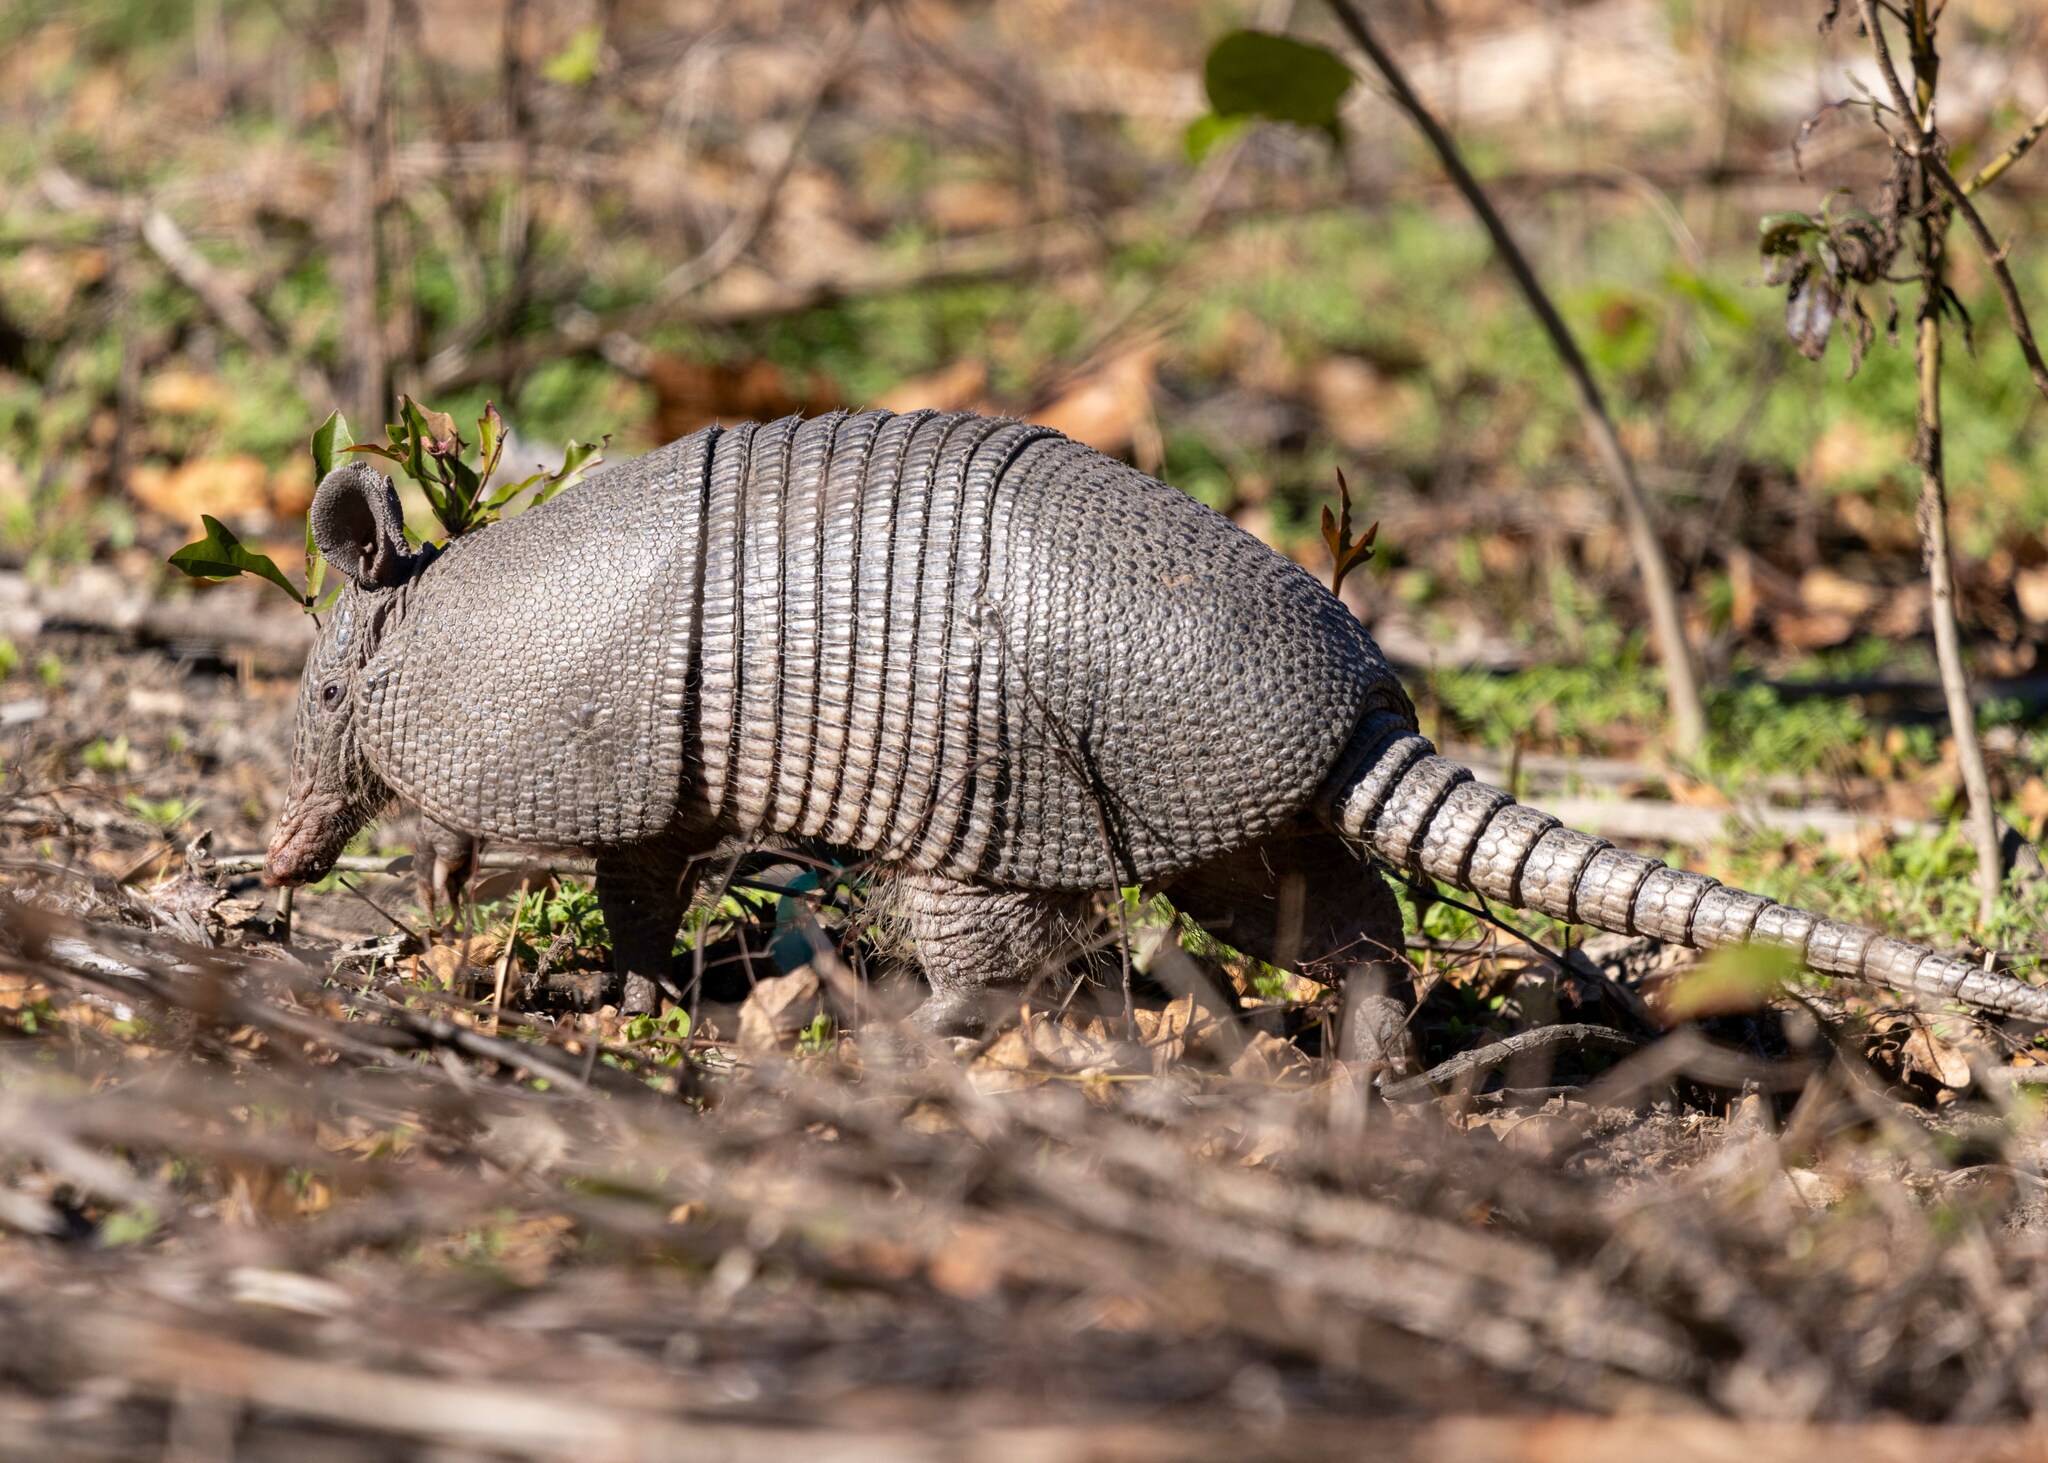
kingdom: Animalia
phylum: Chordata
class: Mammalia
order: Cingulata
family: Dasypodidae
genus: Dasypus
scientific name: Dasypus novemcinctus
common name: Nine-banded armadillo
